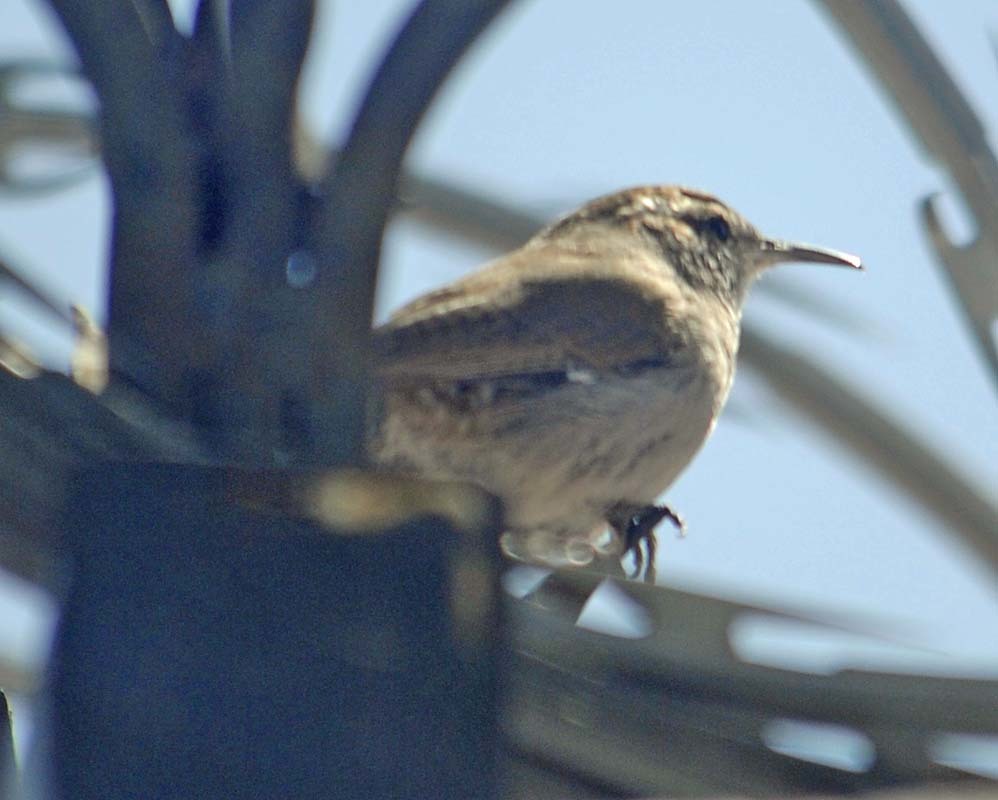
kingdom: Animalia
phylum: Chordata
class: Aves
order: Passeriformes
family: Troglodytidae
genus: Thryomanes
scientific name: Thryomanes bewickii
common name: Bewick's wren
